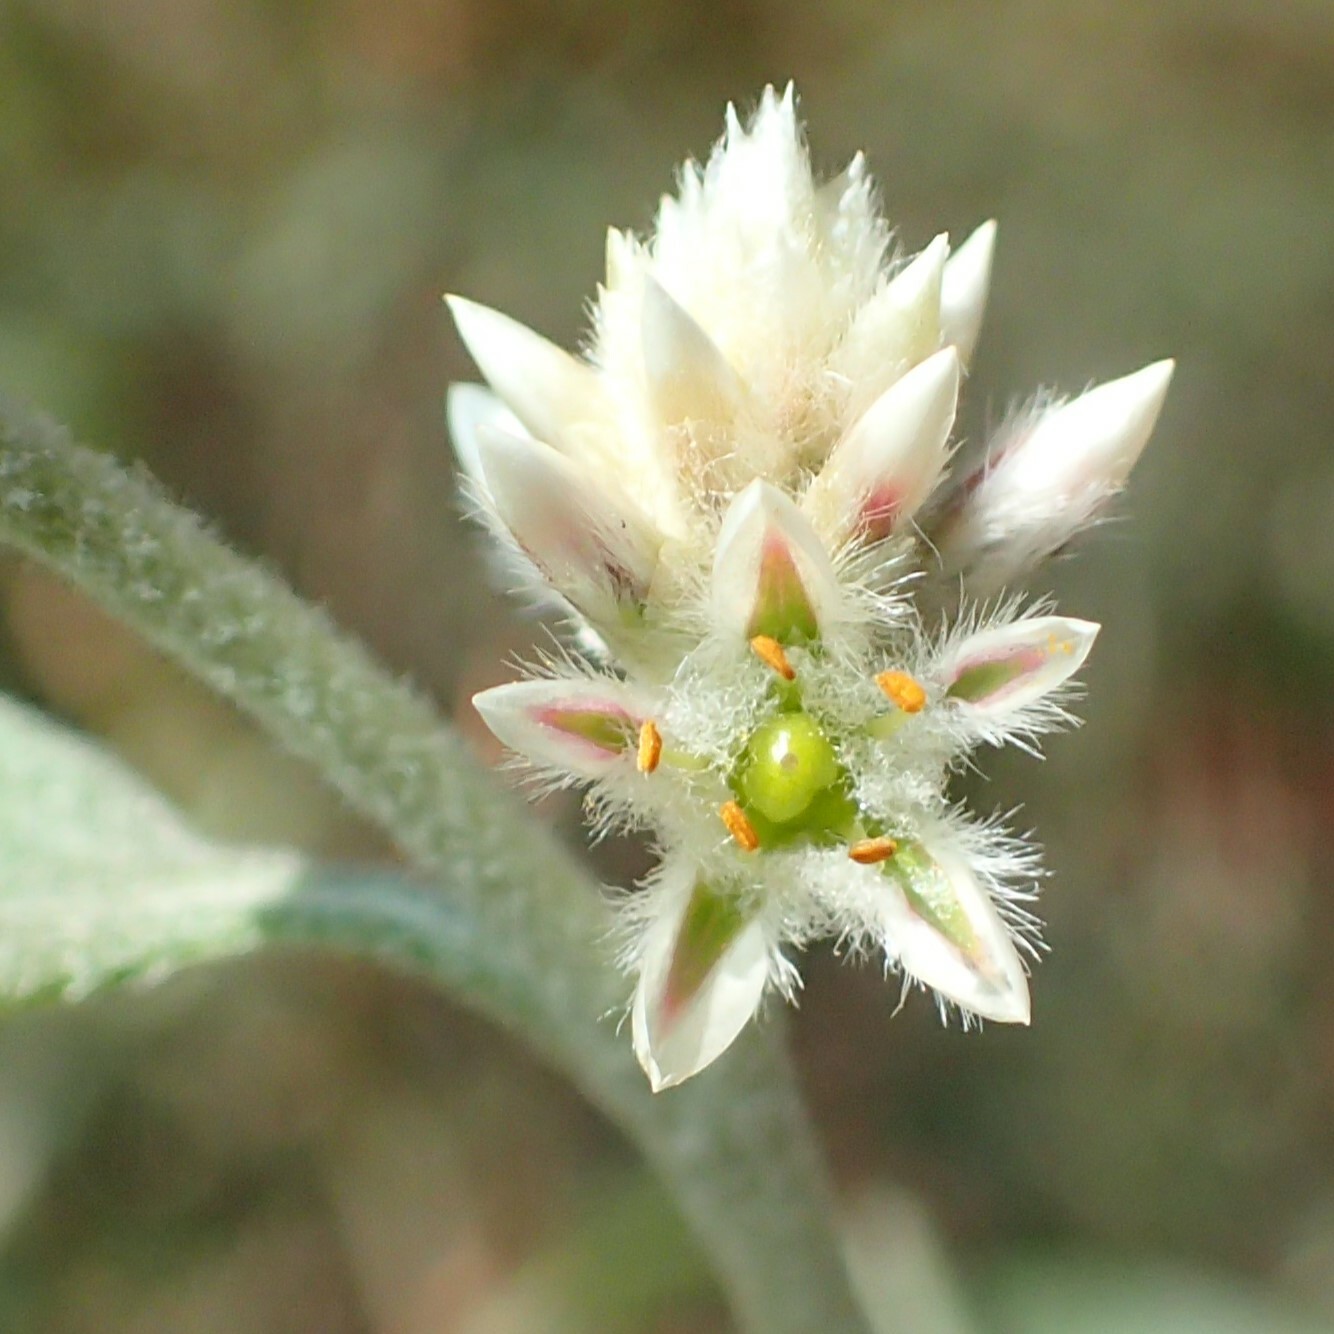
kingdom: Plantae
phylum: Tracheophyta
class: Magnoliopsida
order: Caryophyllales
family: Amaranthaceae
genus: Ptilotus
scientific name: Ptilotus astrolasius
